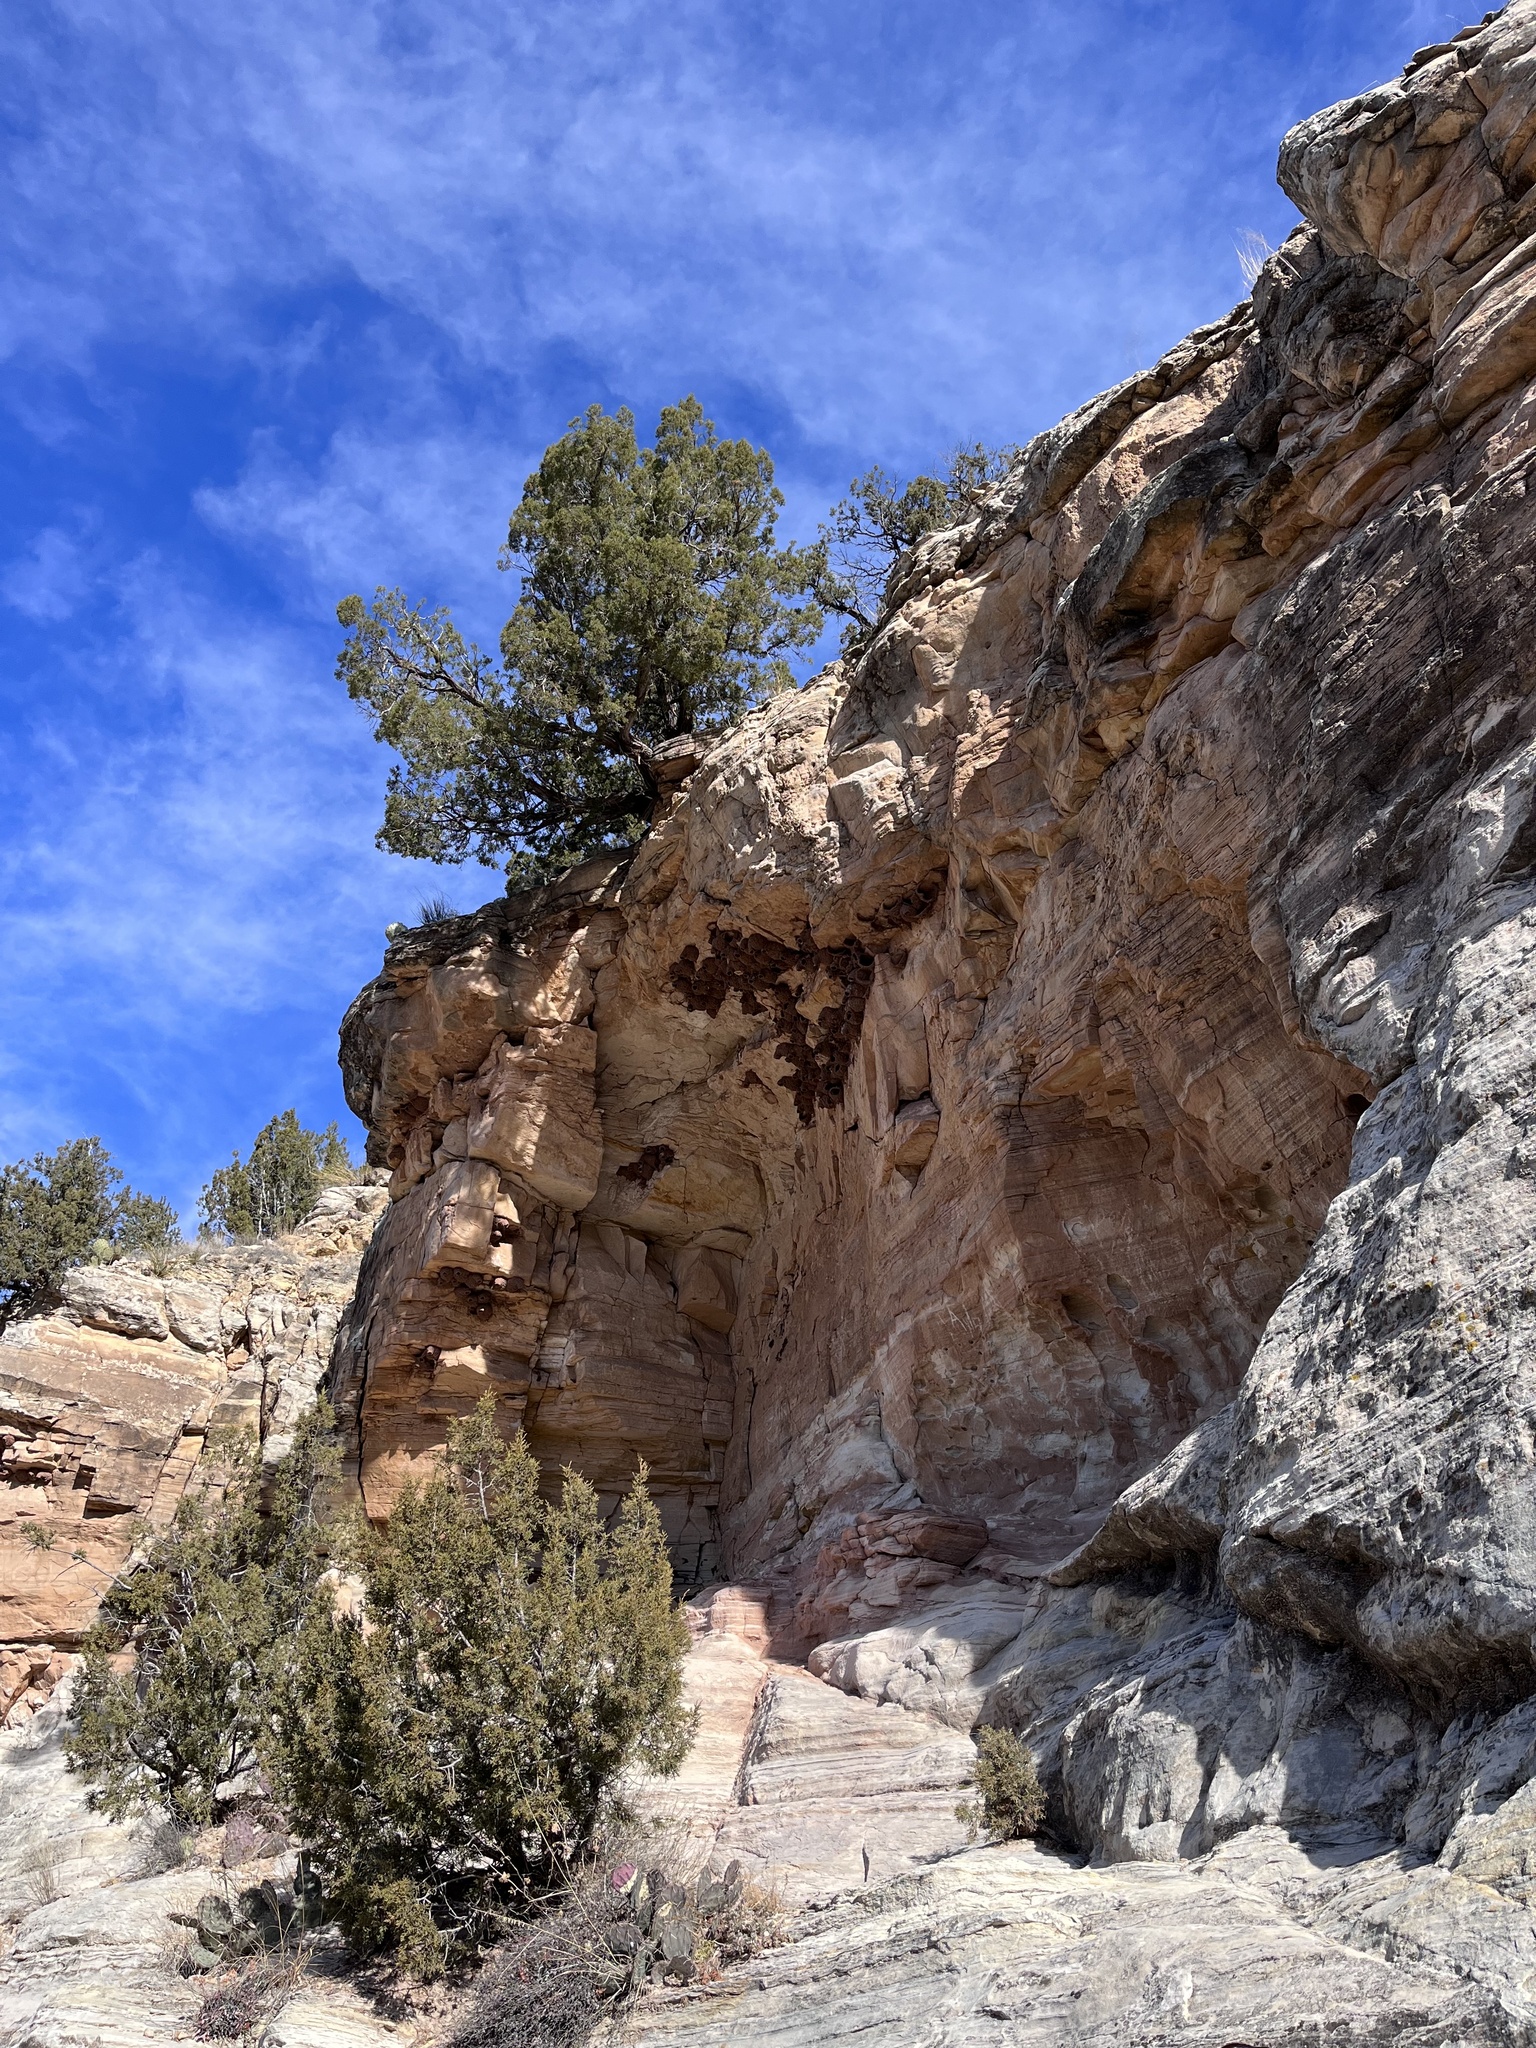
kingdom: Animalia
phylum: Chordata
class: Aves
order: Passeriformes
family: Hirundinidae
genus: Petrochelidon
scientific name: Petrochelidon pyrrhonota
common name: American cliff swallow
